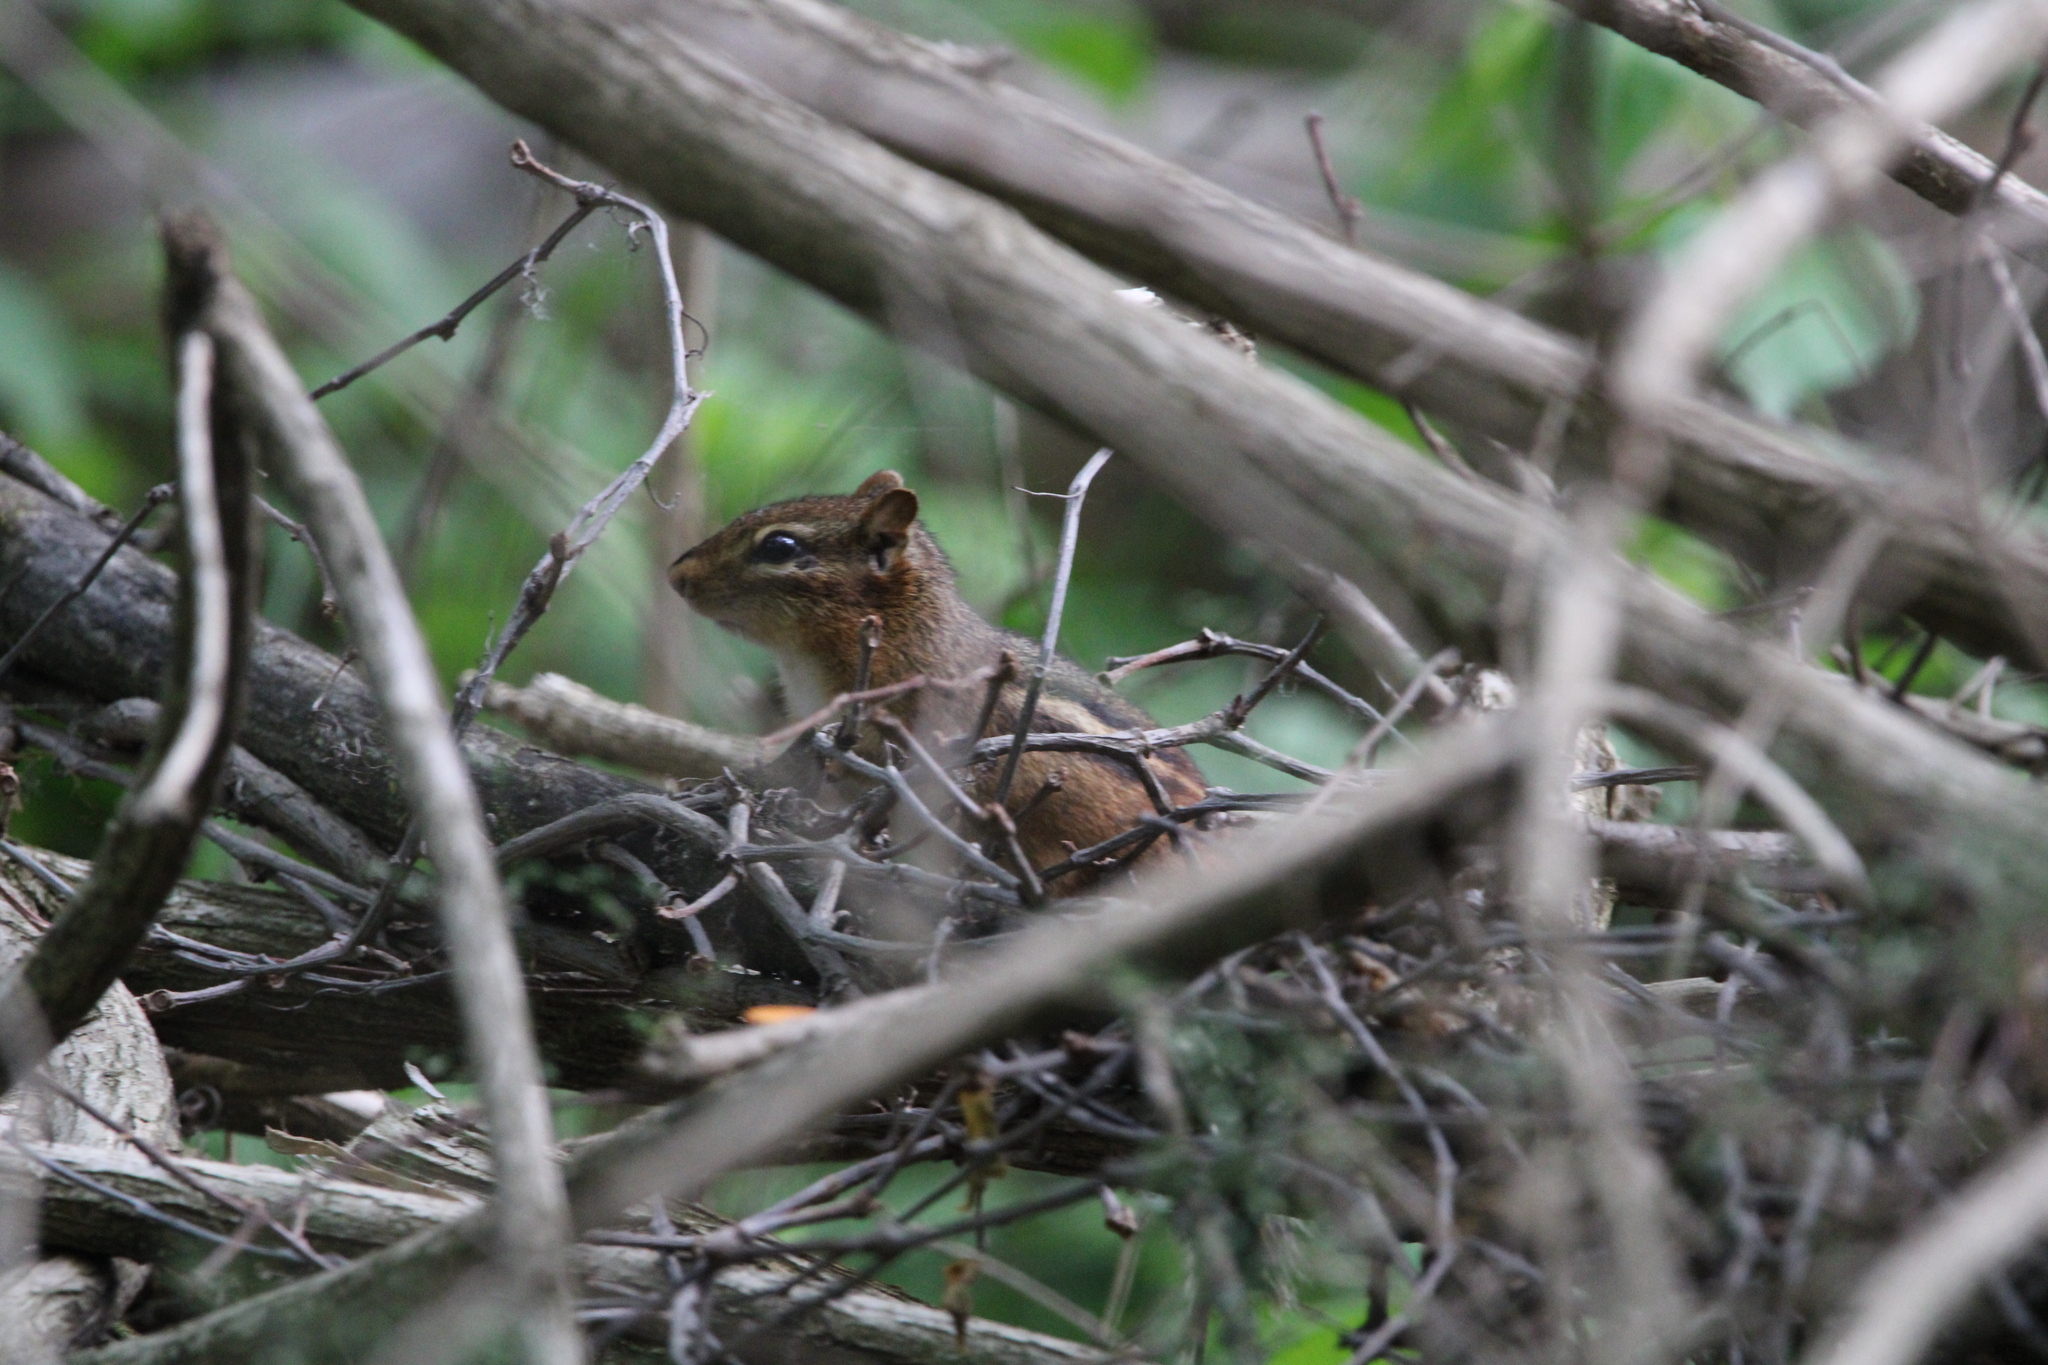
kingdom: Animalia
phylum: Chordata
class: Mammalia
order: Rodentia
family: Sciuridae
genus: Tamias
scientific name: Tamias striatus
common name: Eastern chipmunk
